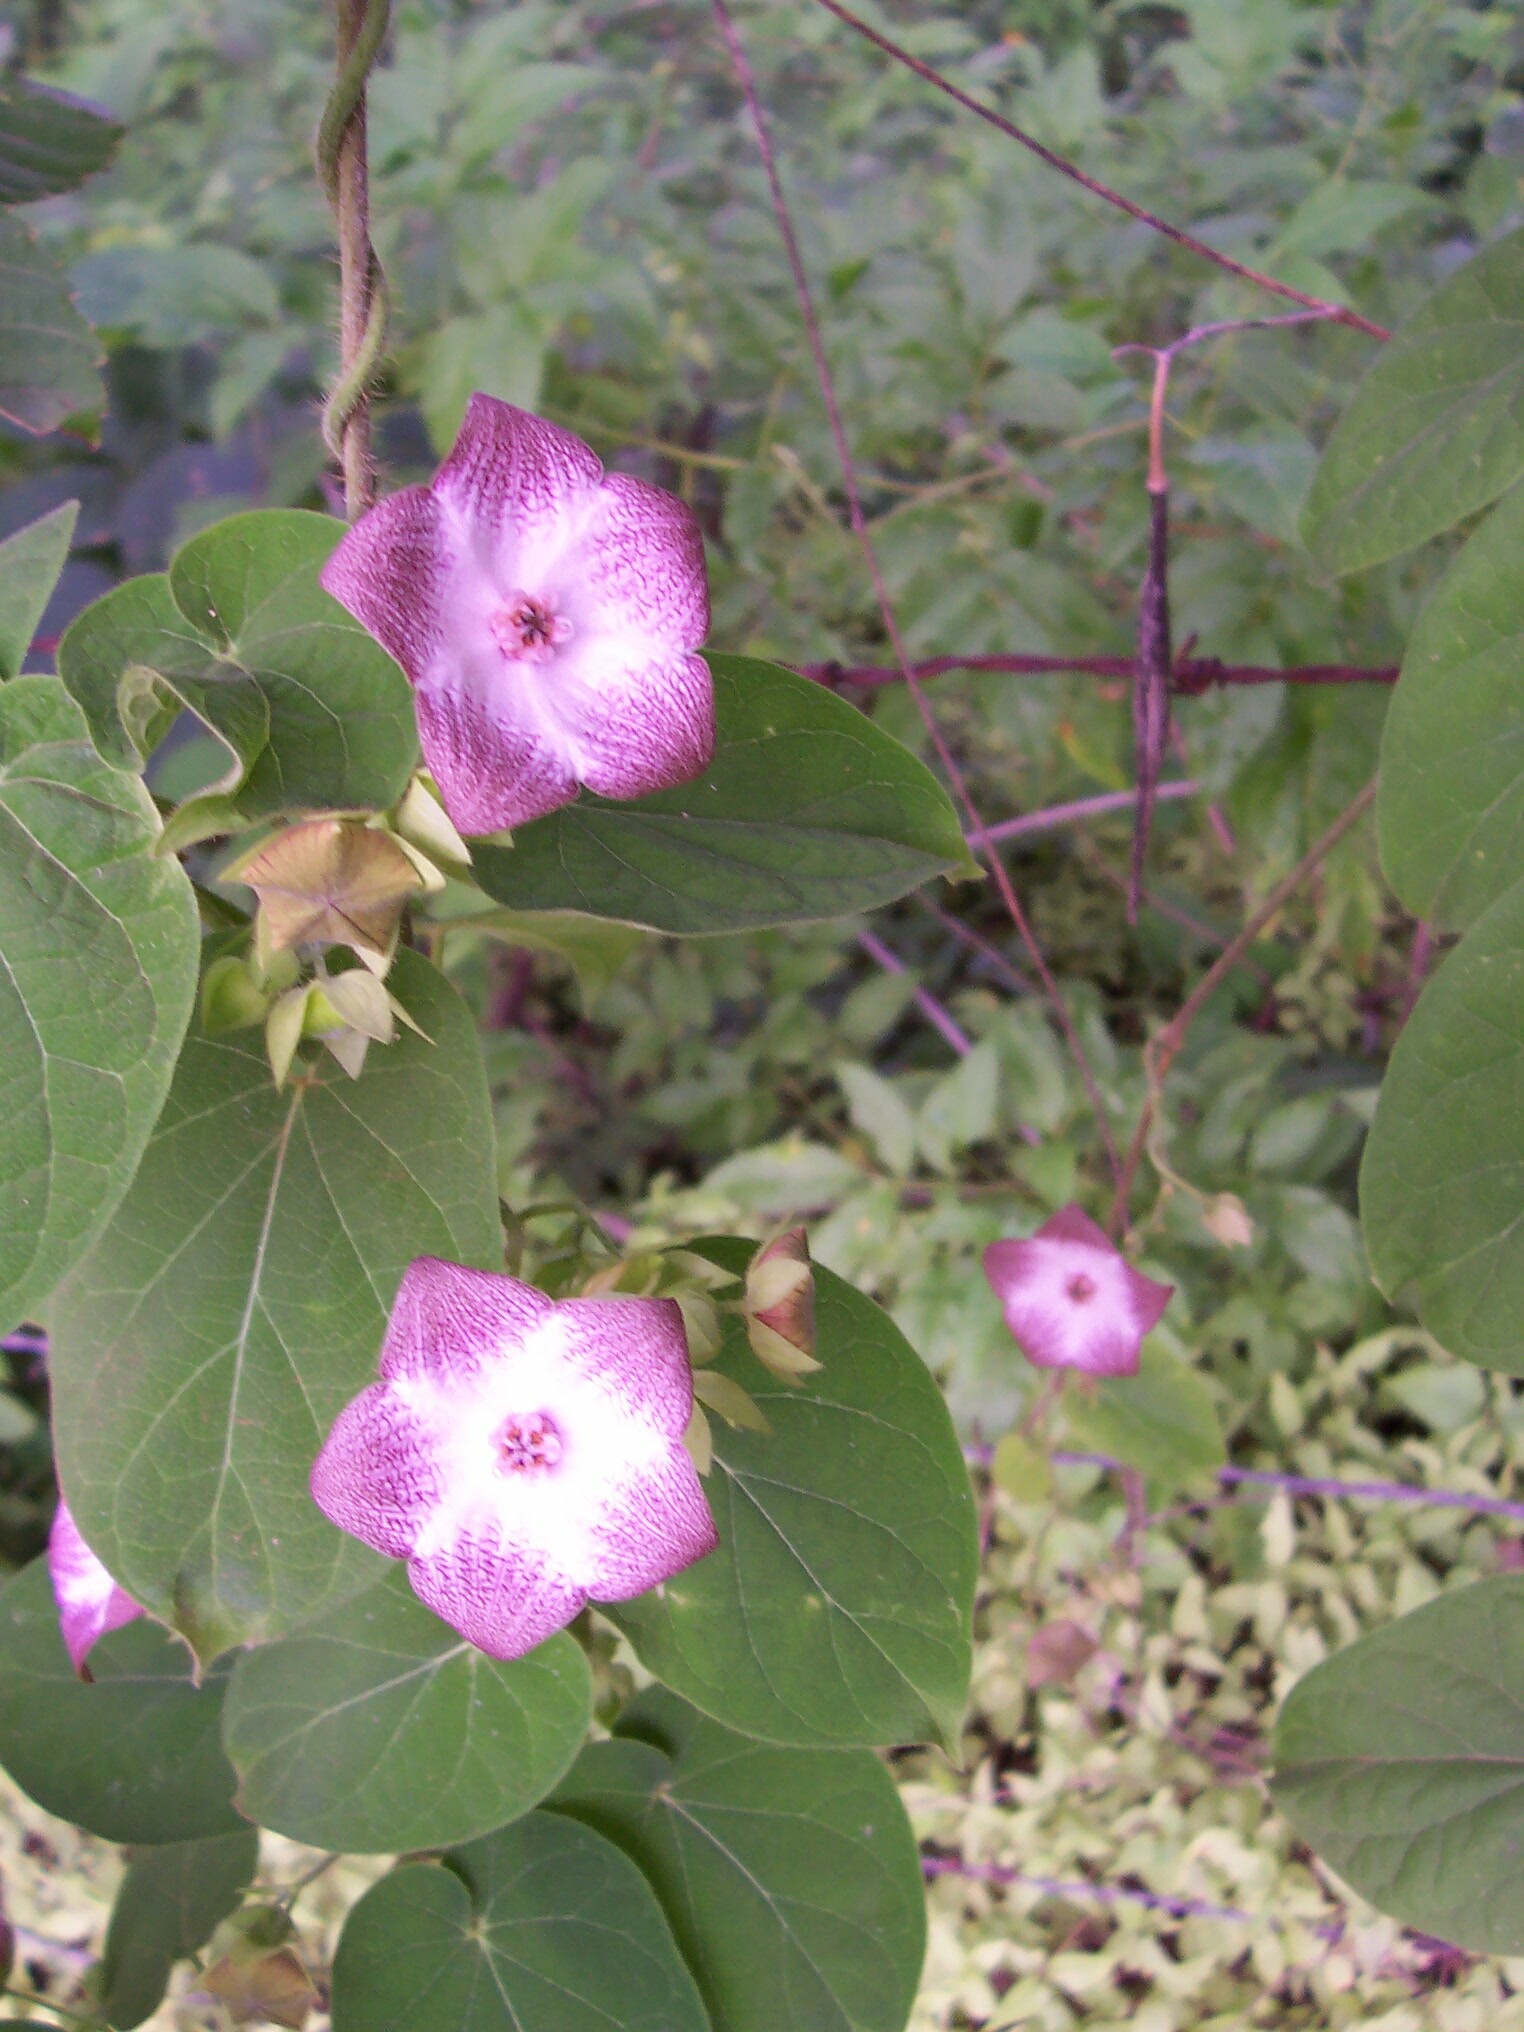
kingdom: Plantae
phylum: Tracheophyta
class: Magnoliopsida
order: Gentianales
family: Apocynaceae
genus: Polystemma
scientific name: Polystemma guatemalense
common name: Arborescente rattan
